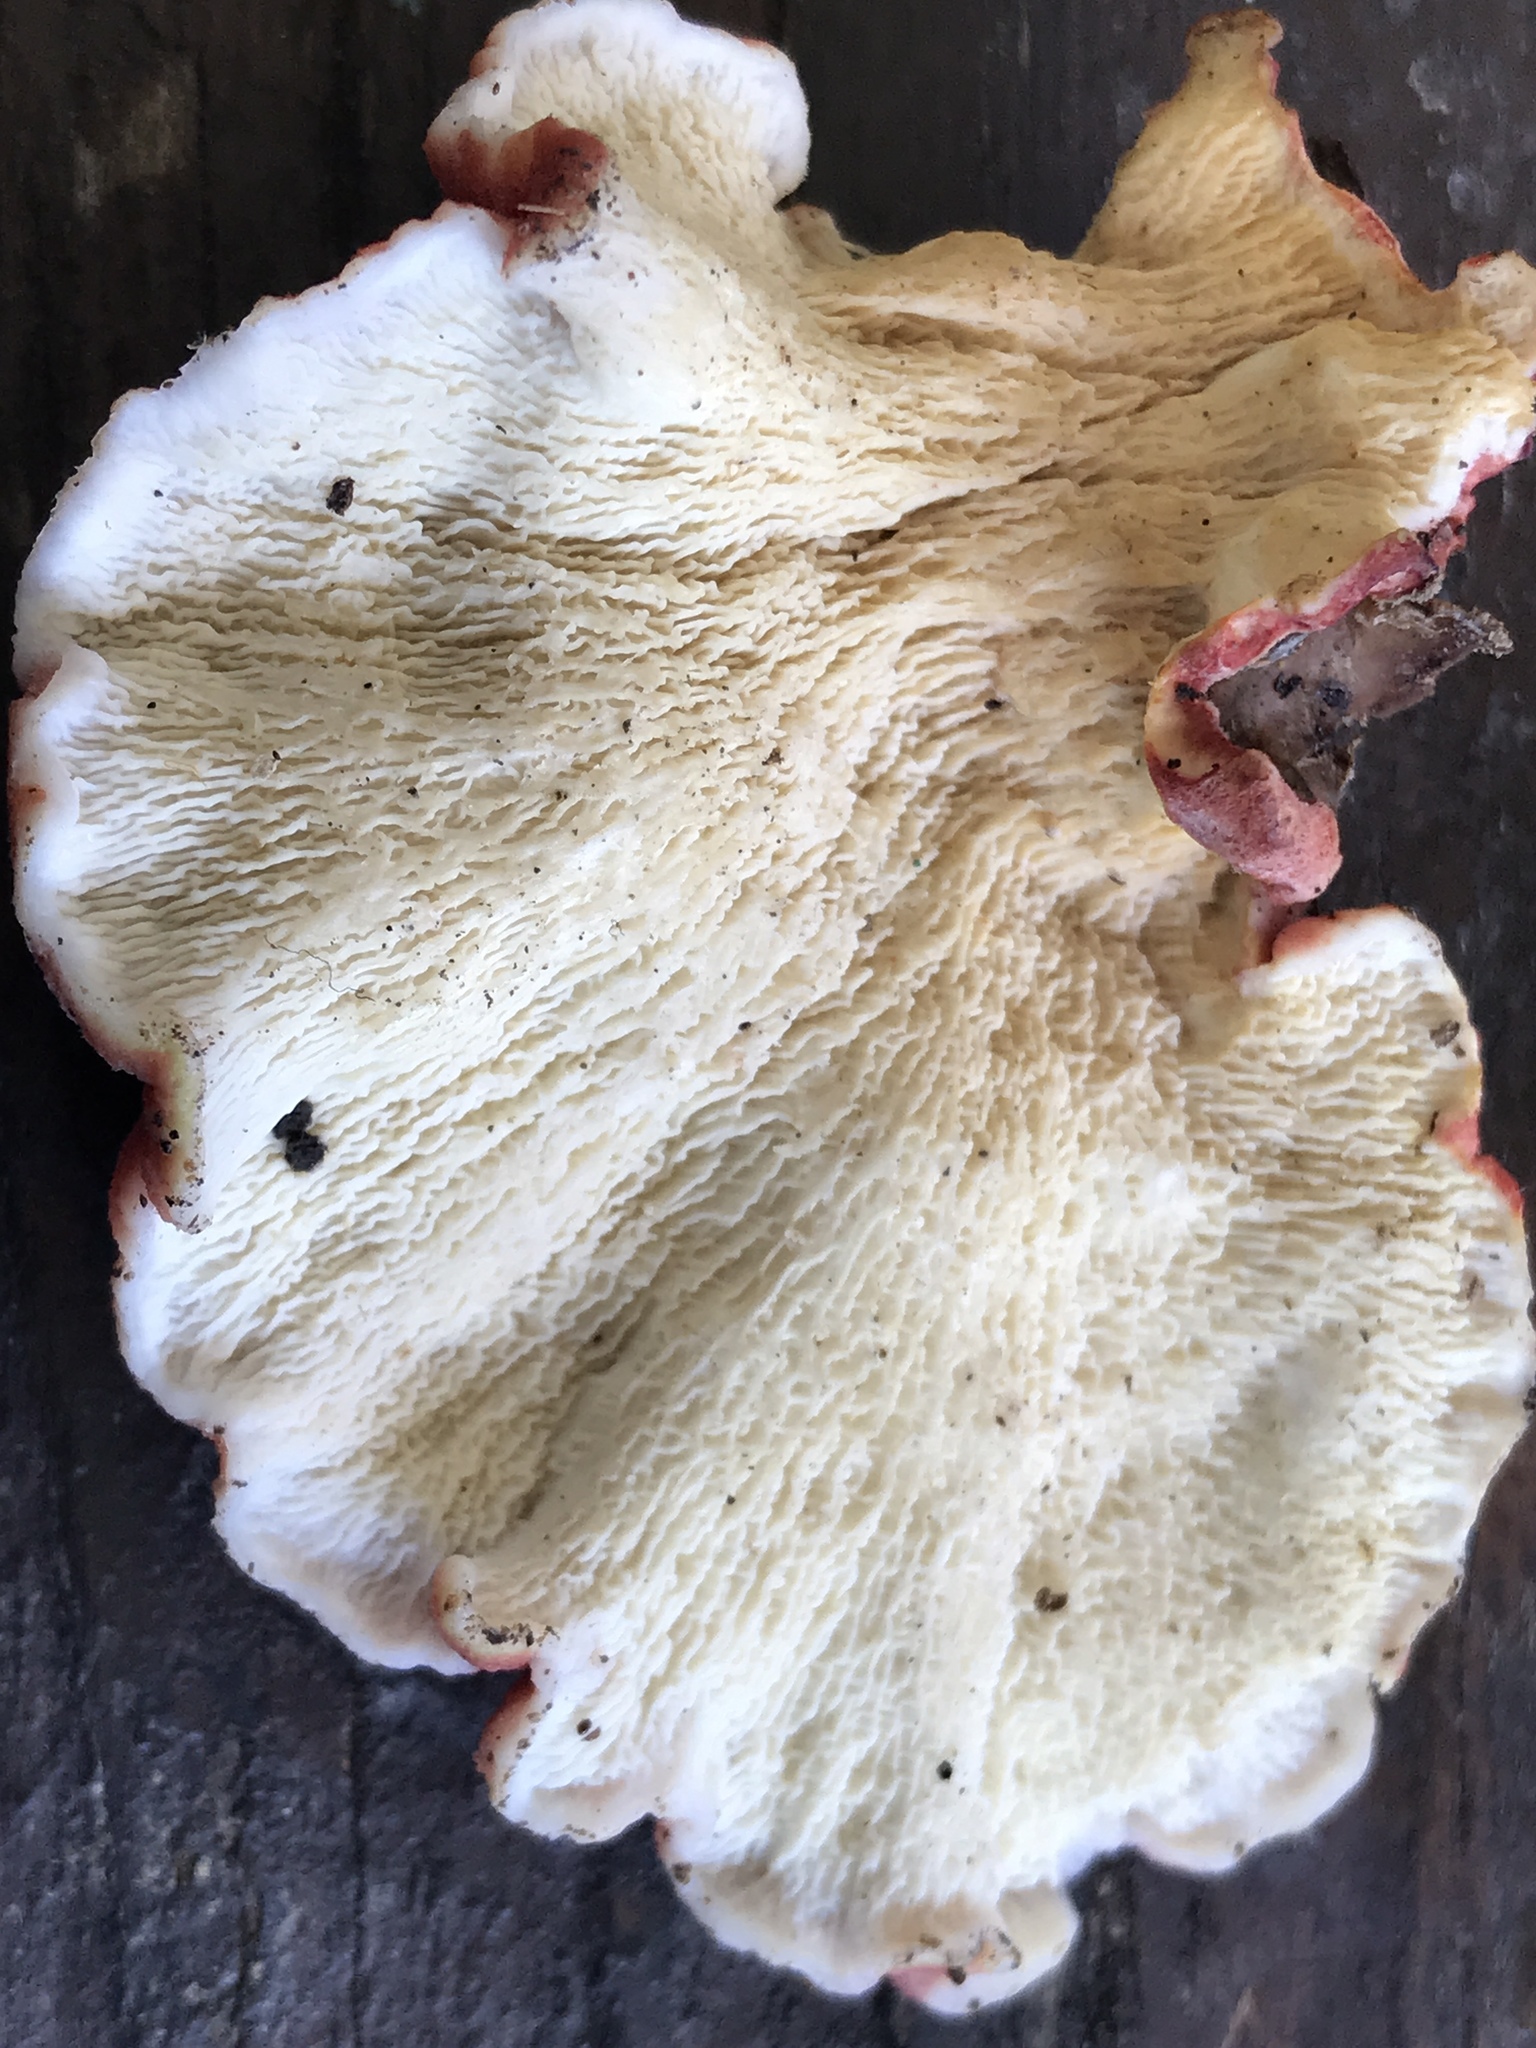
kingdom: Fungi
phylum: Basidiomycota
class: Agaricomycetes
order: Polyporales
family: Irpicaceae
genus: Byssomerulius
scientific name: Byssomerulius incarnatus
